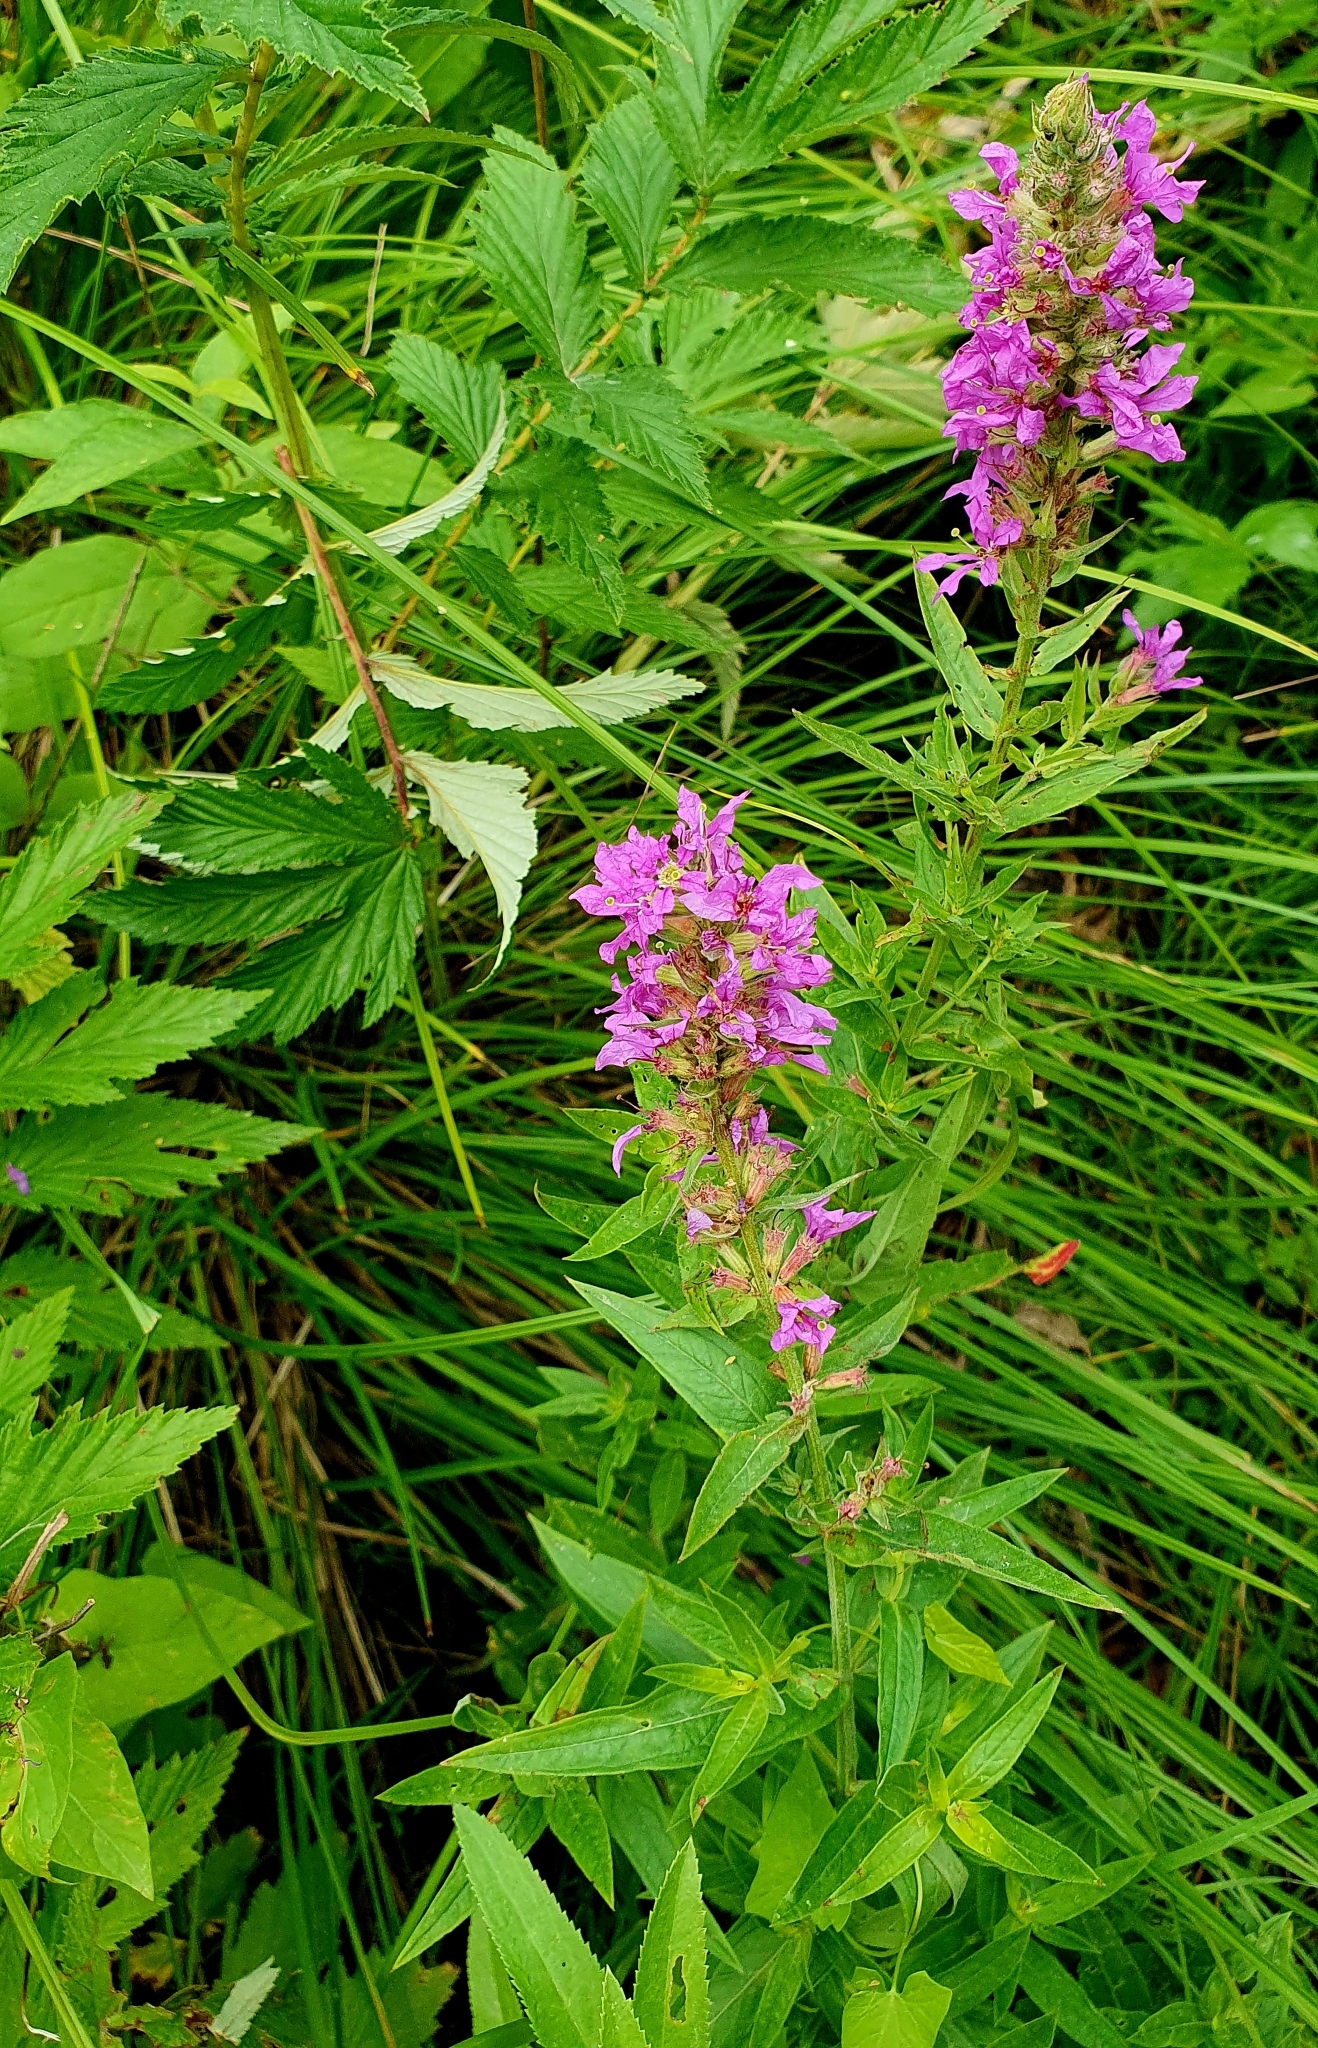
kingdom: Plantae
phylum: Tracheophyta
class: Magnoliopsida
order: Myrtales
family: Lythraceae
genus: Lythrum
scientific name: Lythrum salicaria
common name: Purple loosestrife
